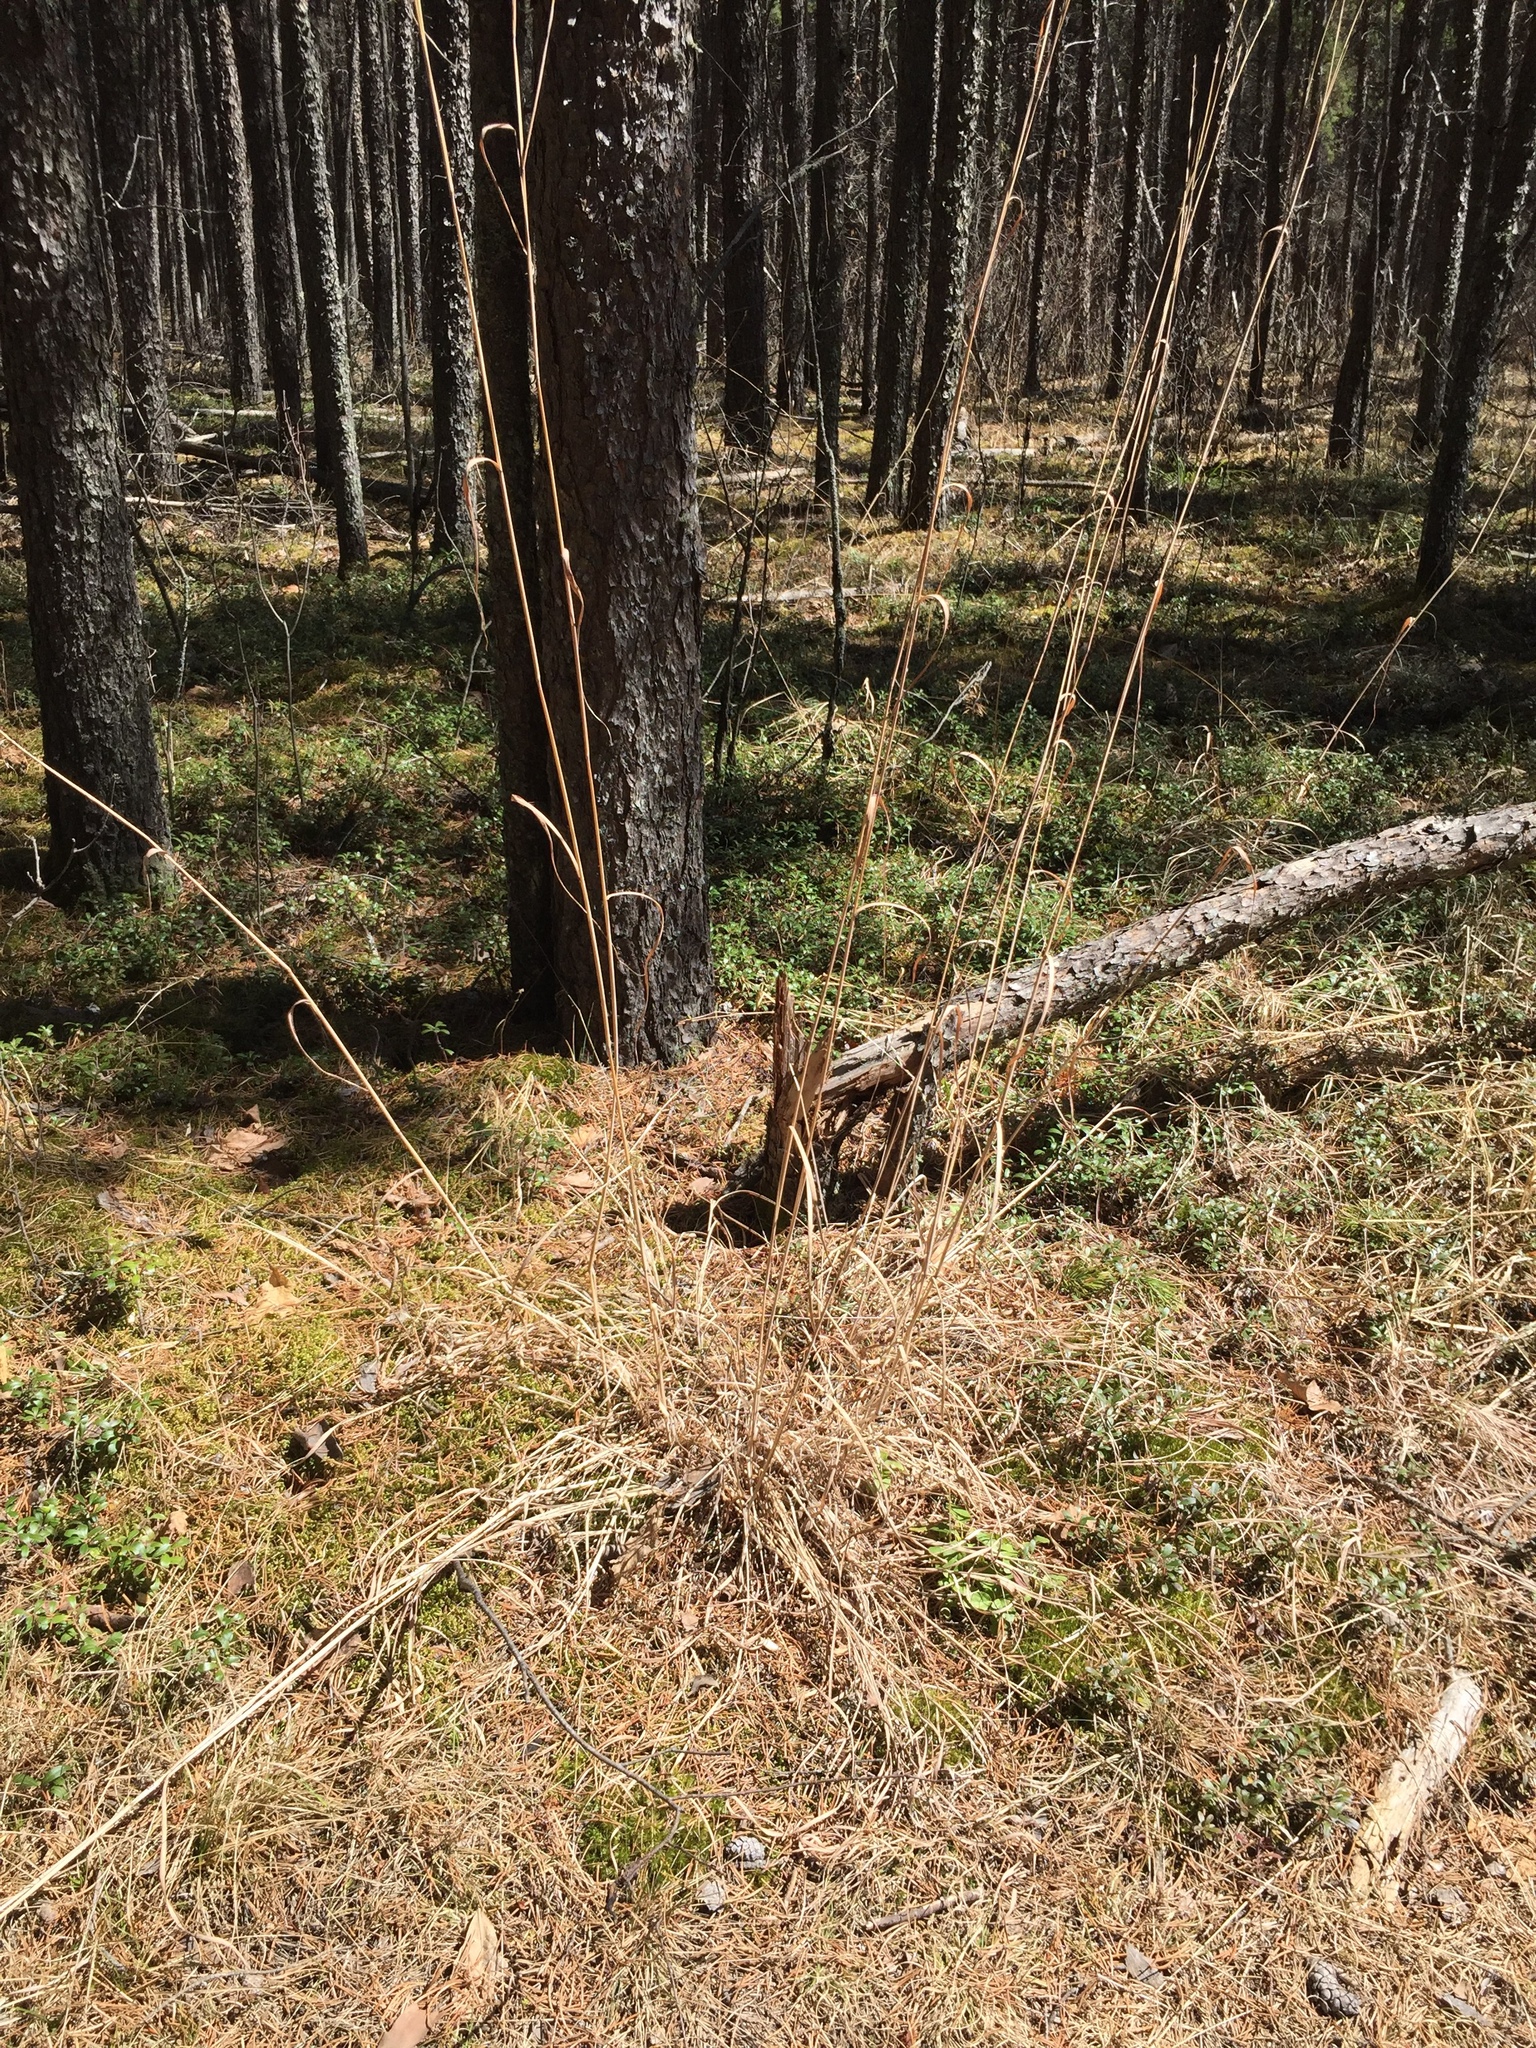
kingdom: Plantae
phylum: Tracheophyta
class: Liliopsida
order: Poales
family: Poaceae
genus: Andropogon
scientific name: Andropogon gerardi
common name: Big bluestem
